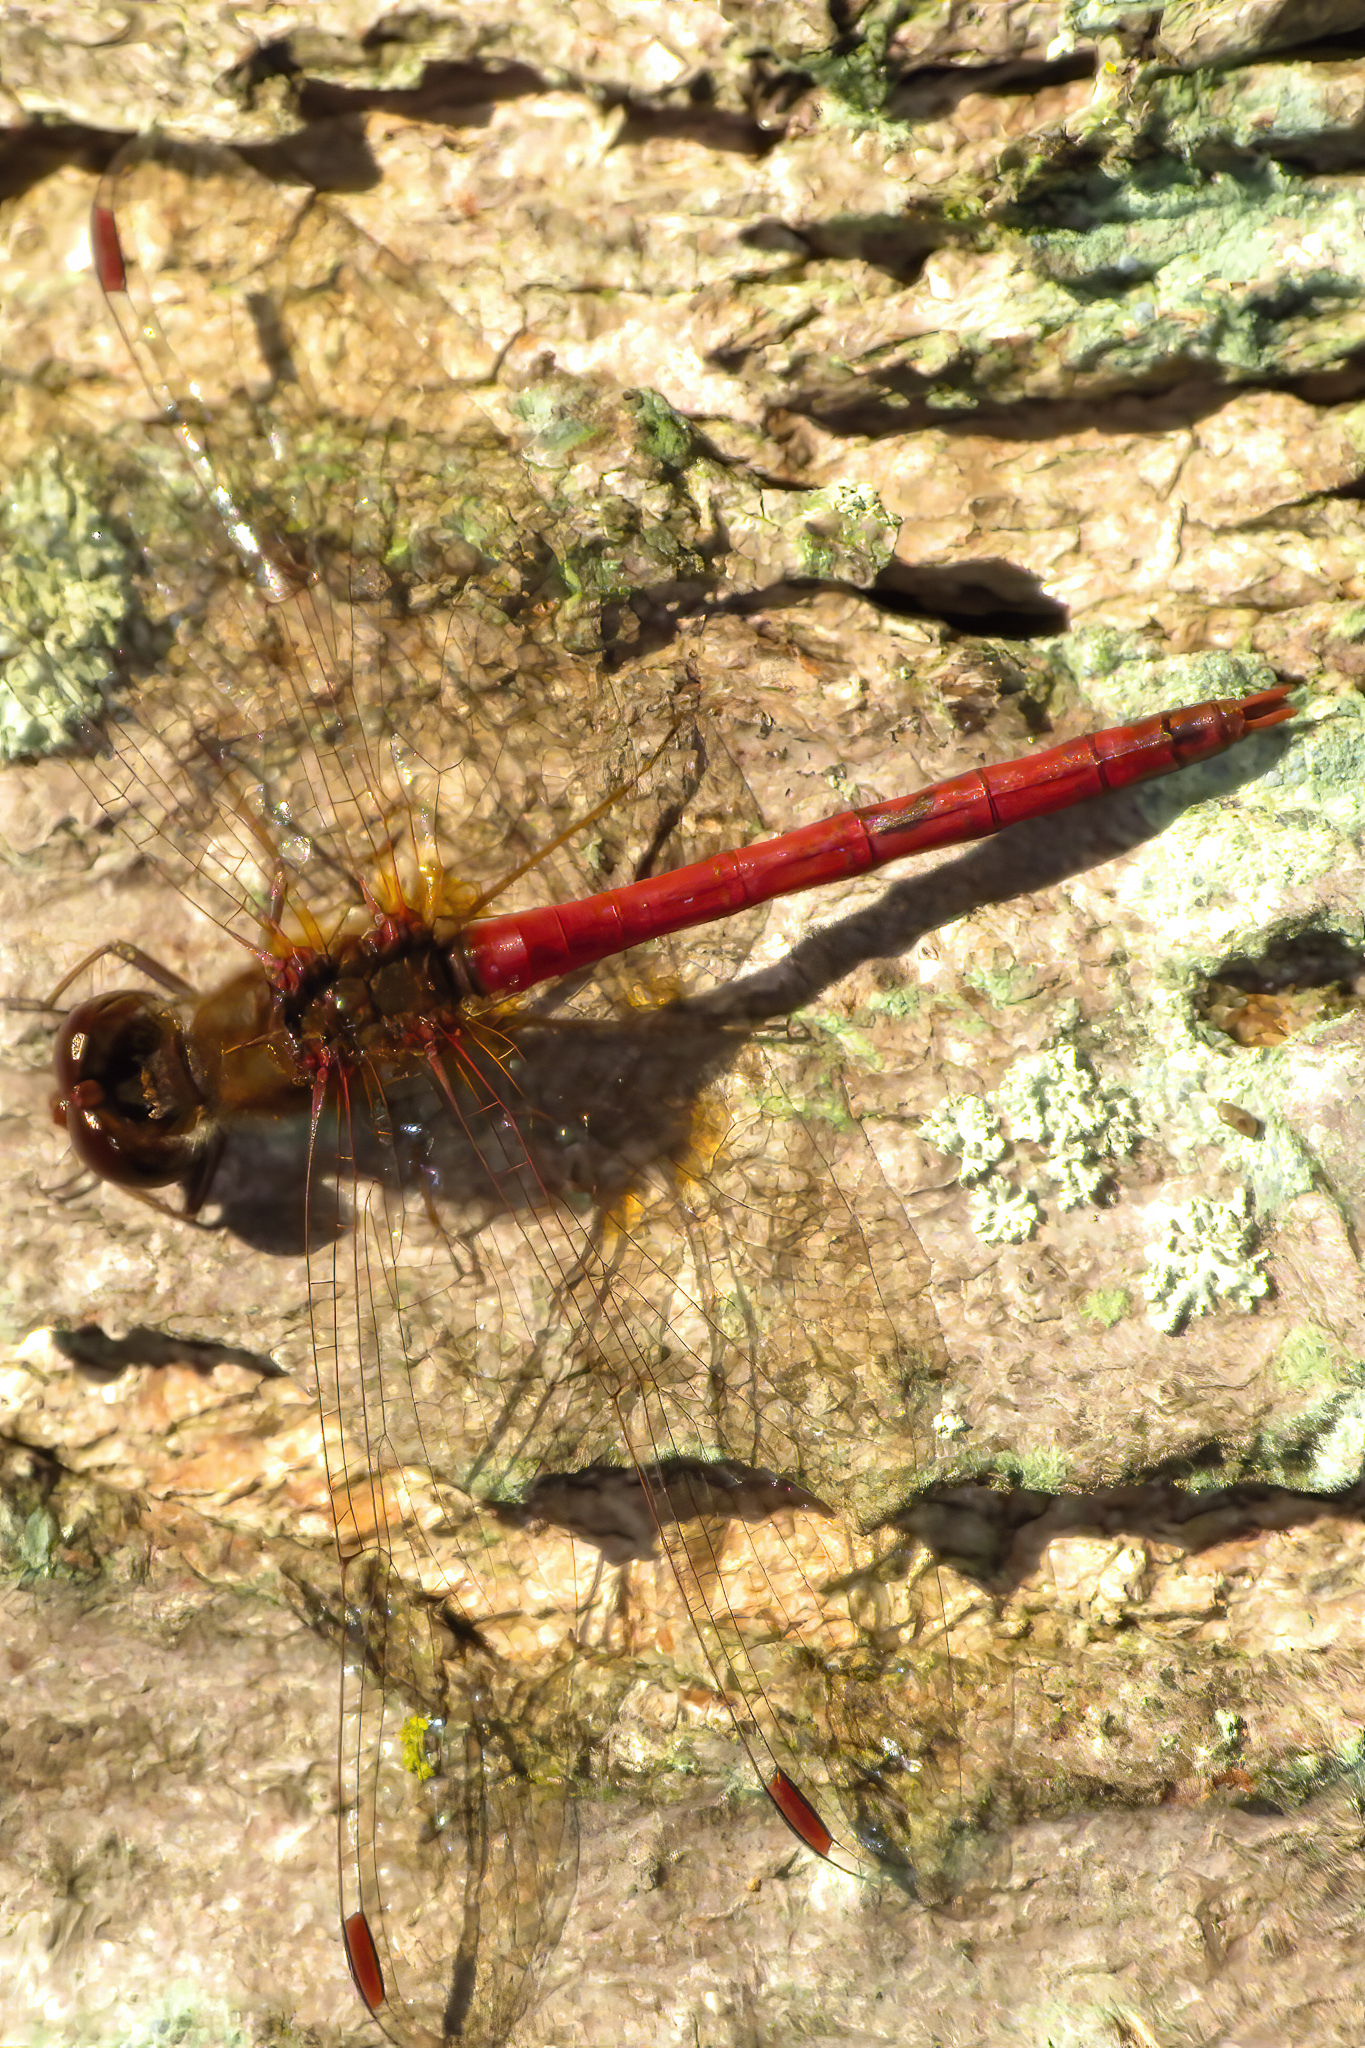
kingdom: Animalia
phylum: Arthropoda
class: Insecta
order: Odonata
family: Libellulidae
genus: Sympetrum
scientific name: Sympetrum vicinum
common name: Autumn meadowhawk
